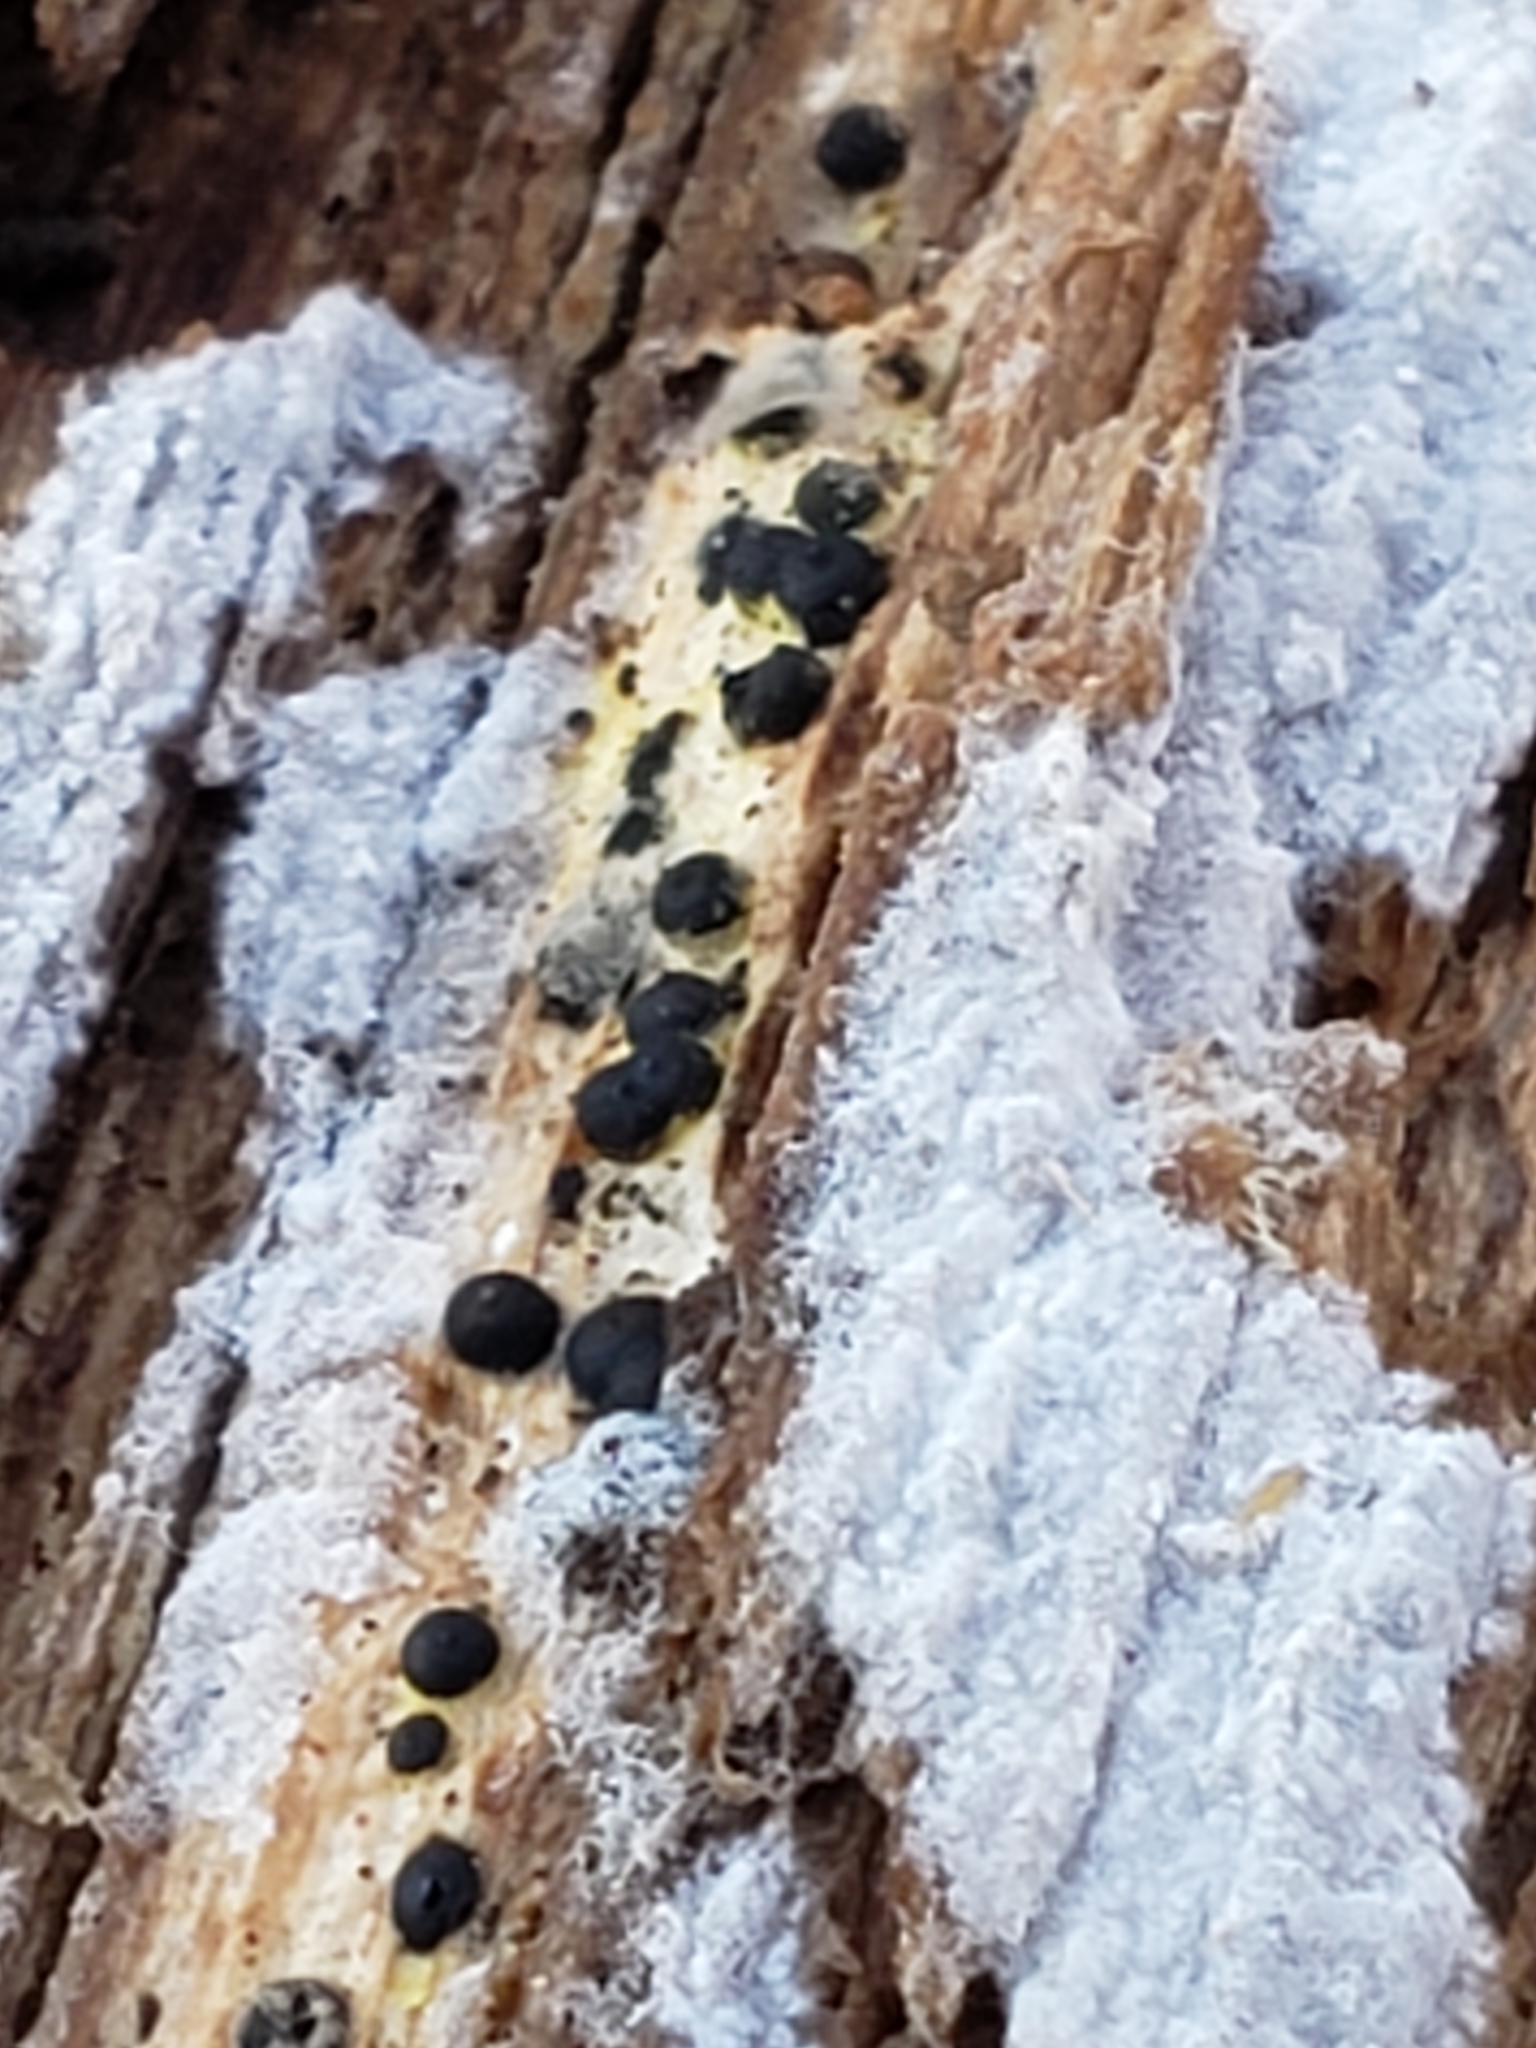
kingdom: Fungi
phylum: Ascomycota
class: Sordariomycetes
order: Xylariales
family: Xylariaceae
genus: Rosellinia
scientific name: Rosellinia subiculata
